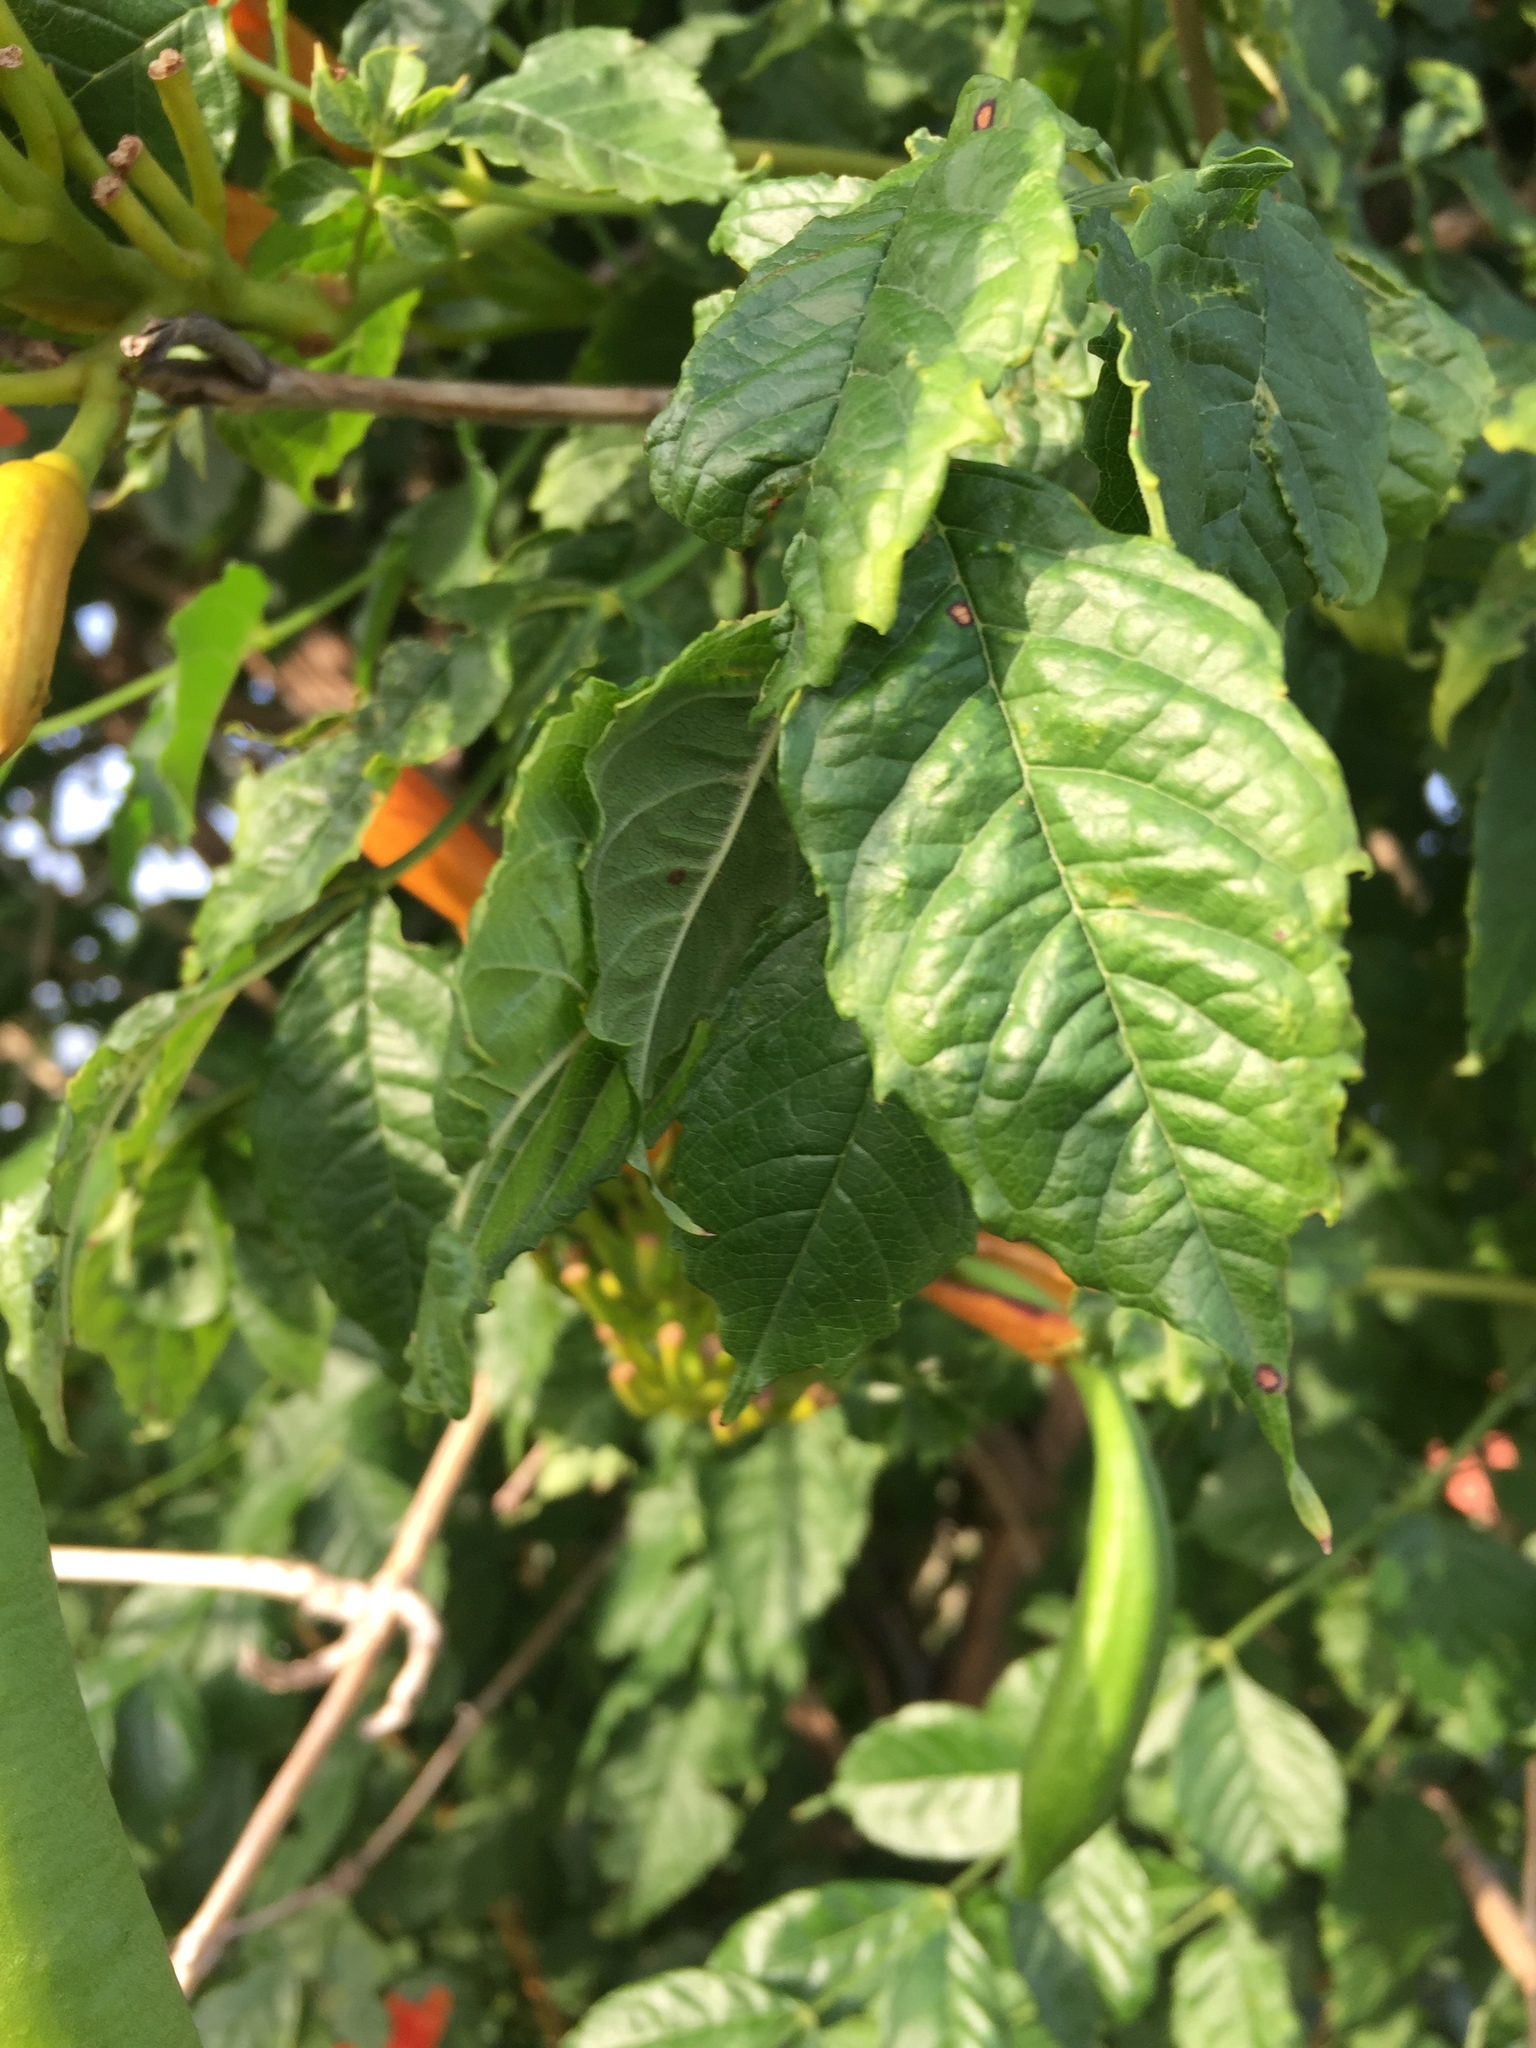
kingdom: Plantae
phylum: Tracheophyta
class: Magnoliopsida
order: Lamiales
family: Bignoniaceae
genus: Campsis
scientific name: Campsis radicans
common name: Trumpet-creeper
